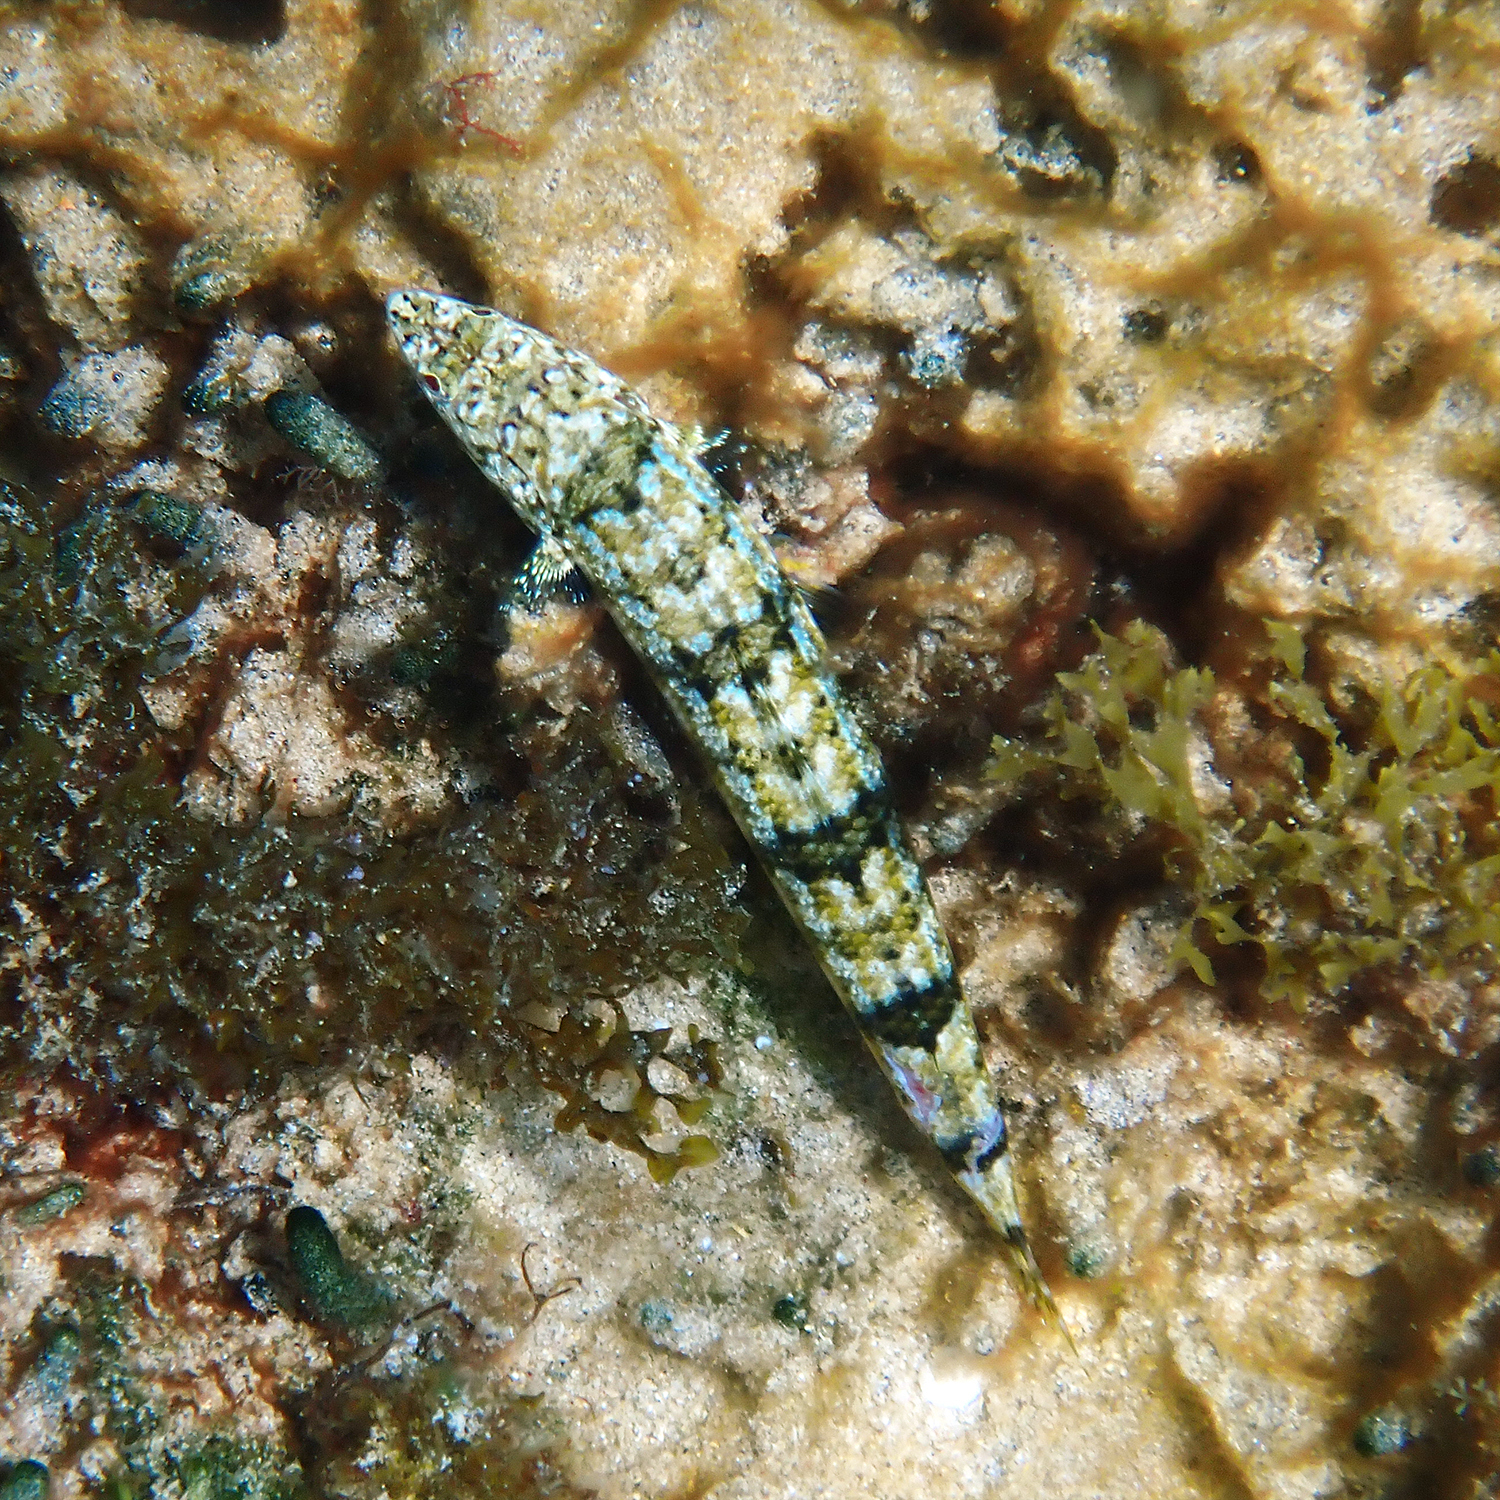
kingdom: Animalia
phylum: Chordata
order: Aulopiformes
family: Synodontidae
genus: Synodus
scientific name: Synodus dermatogenys
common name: Banded lizardfish
